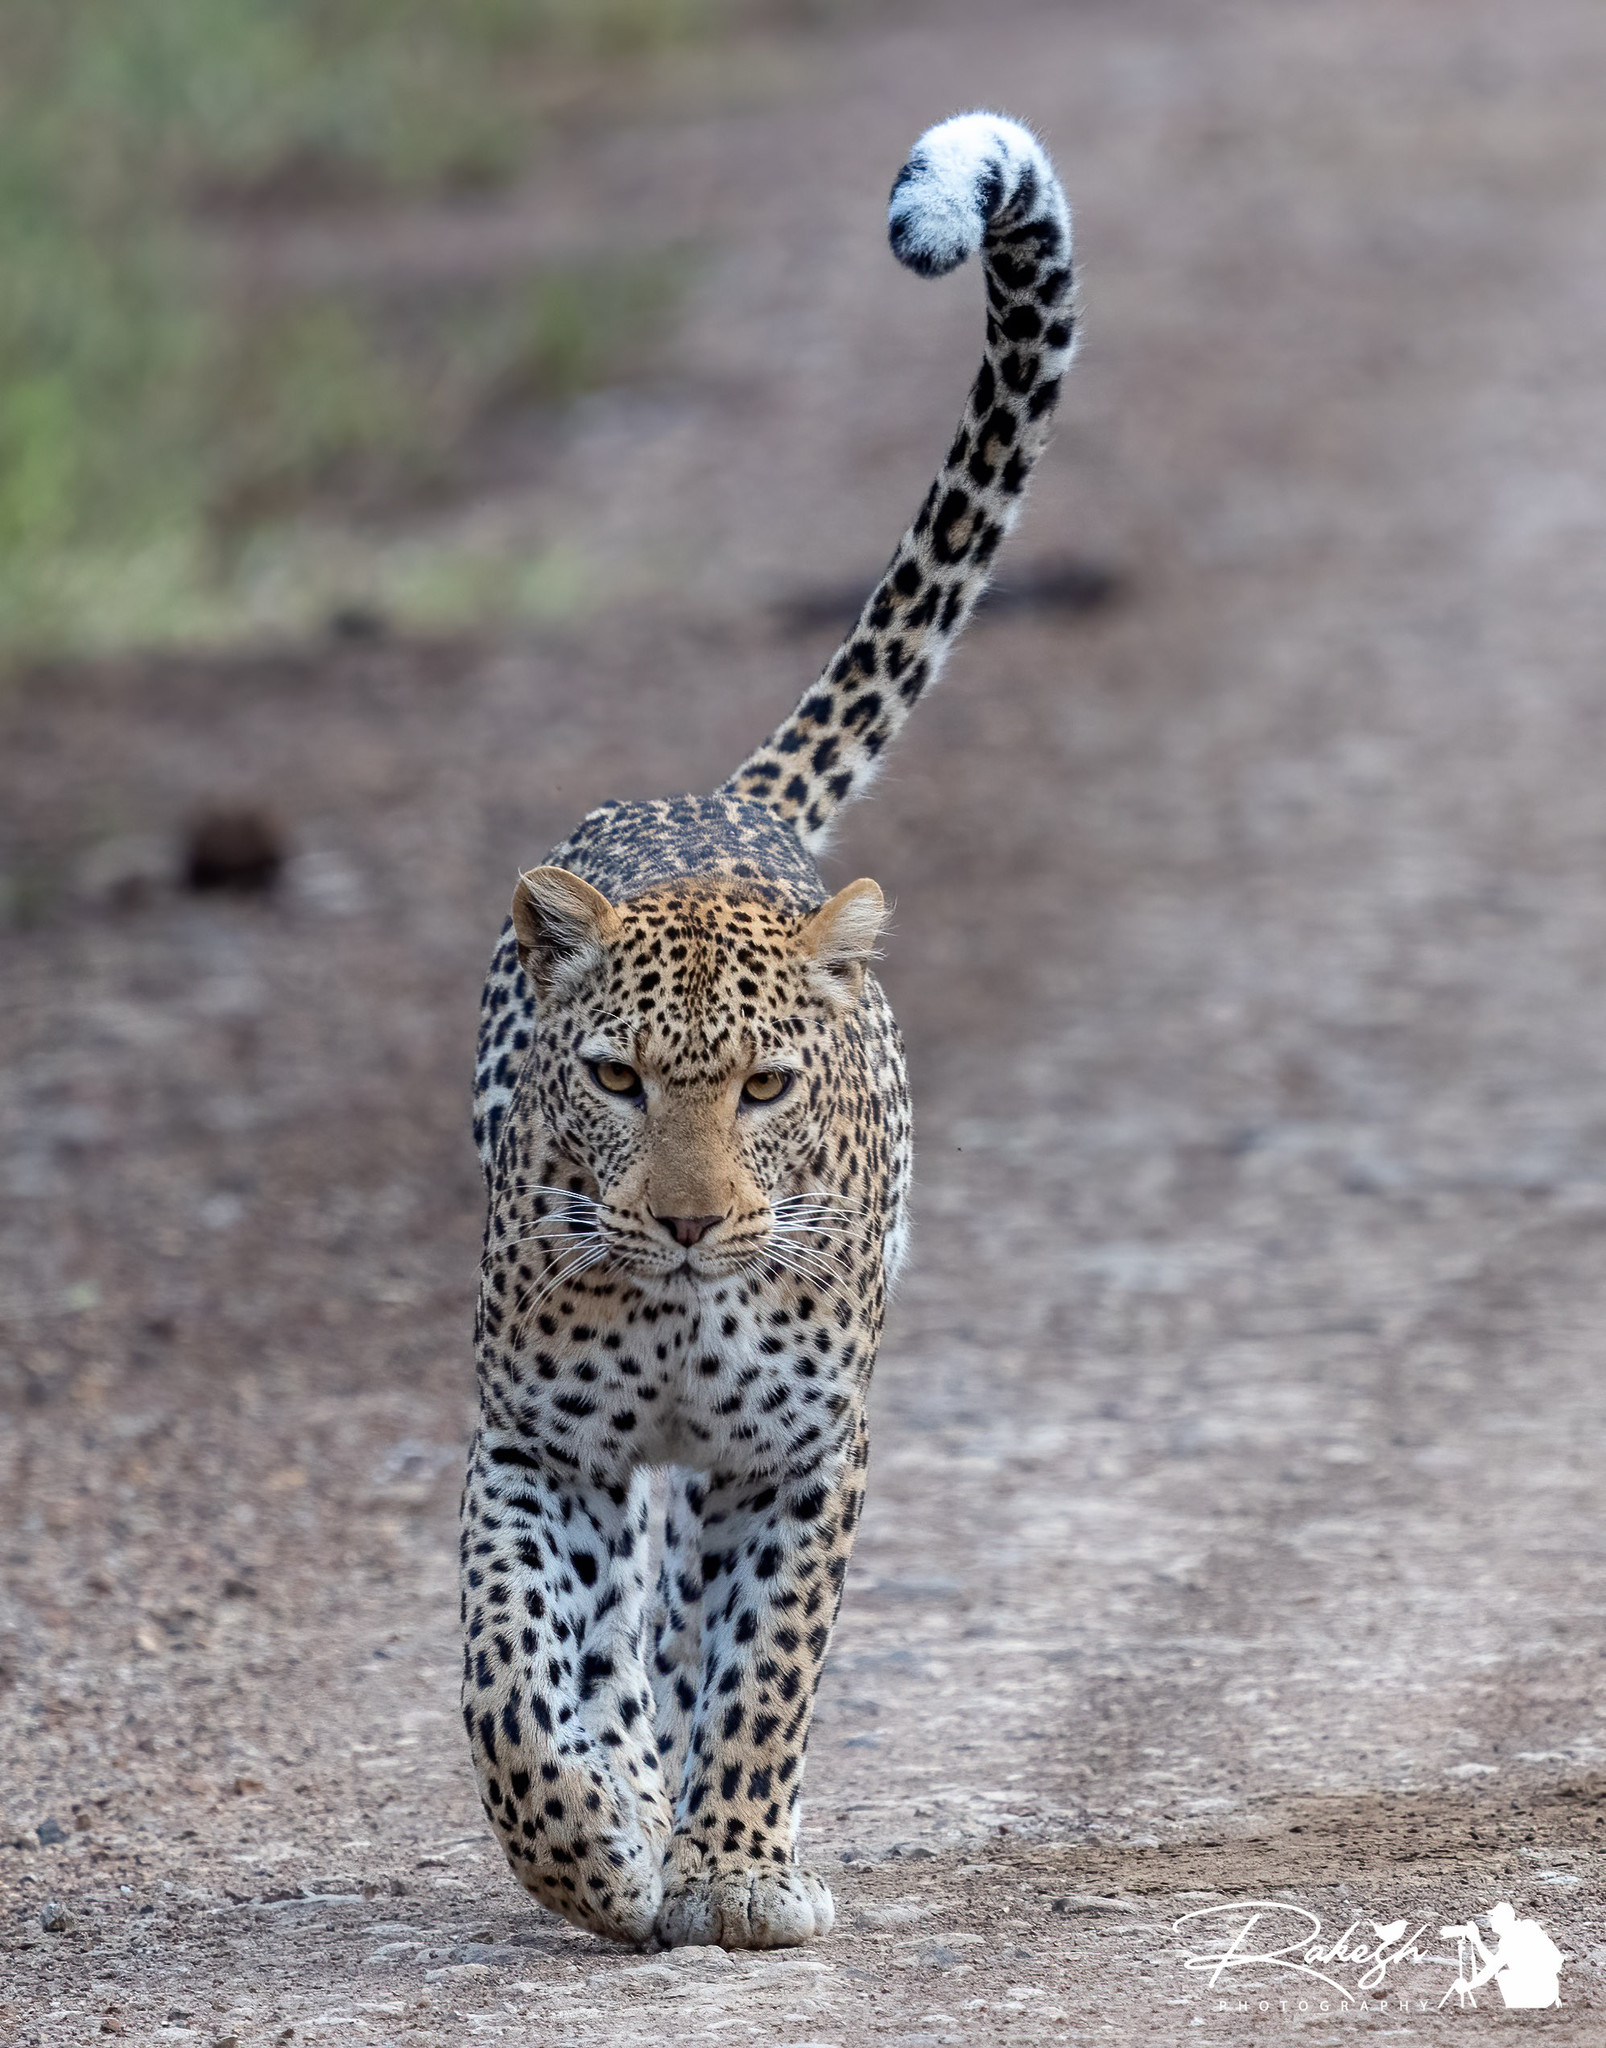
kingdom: Animalia
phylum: Chordata
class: Mammalia
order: Carnivora
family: Felidae
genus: Panthera
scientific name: Panthera pardus
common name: Leopard
